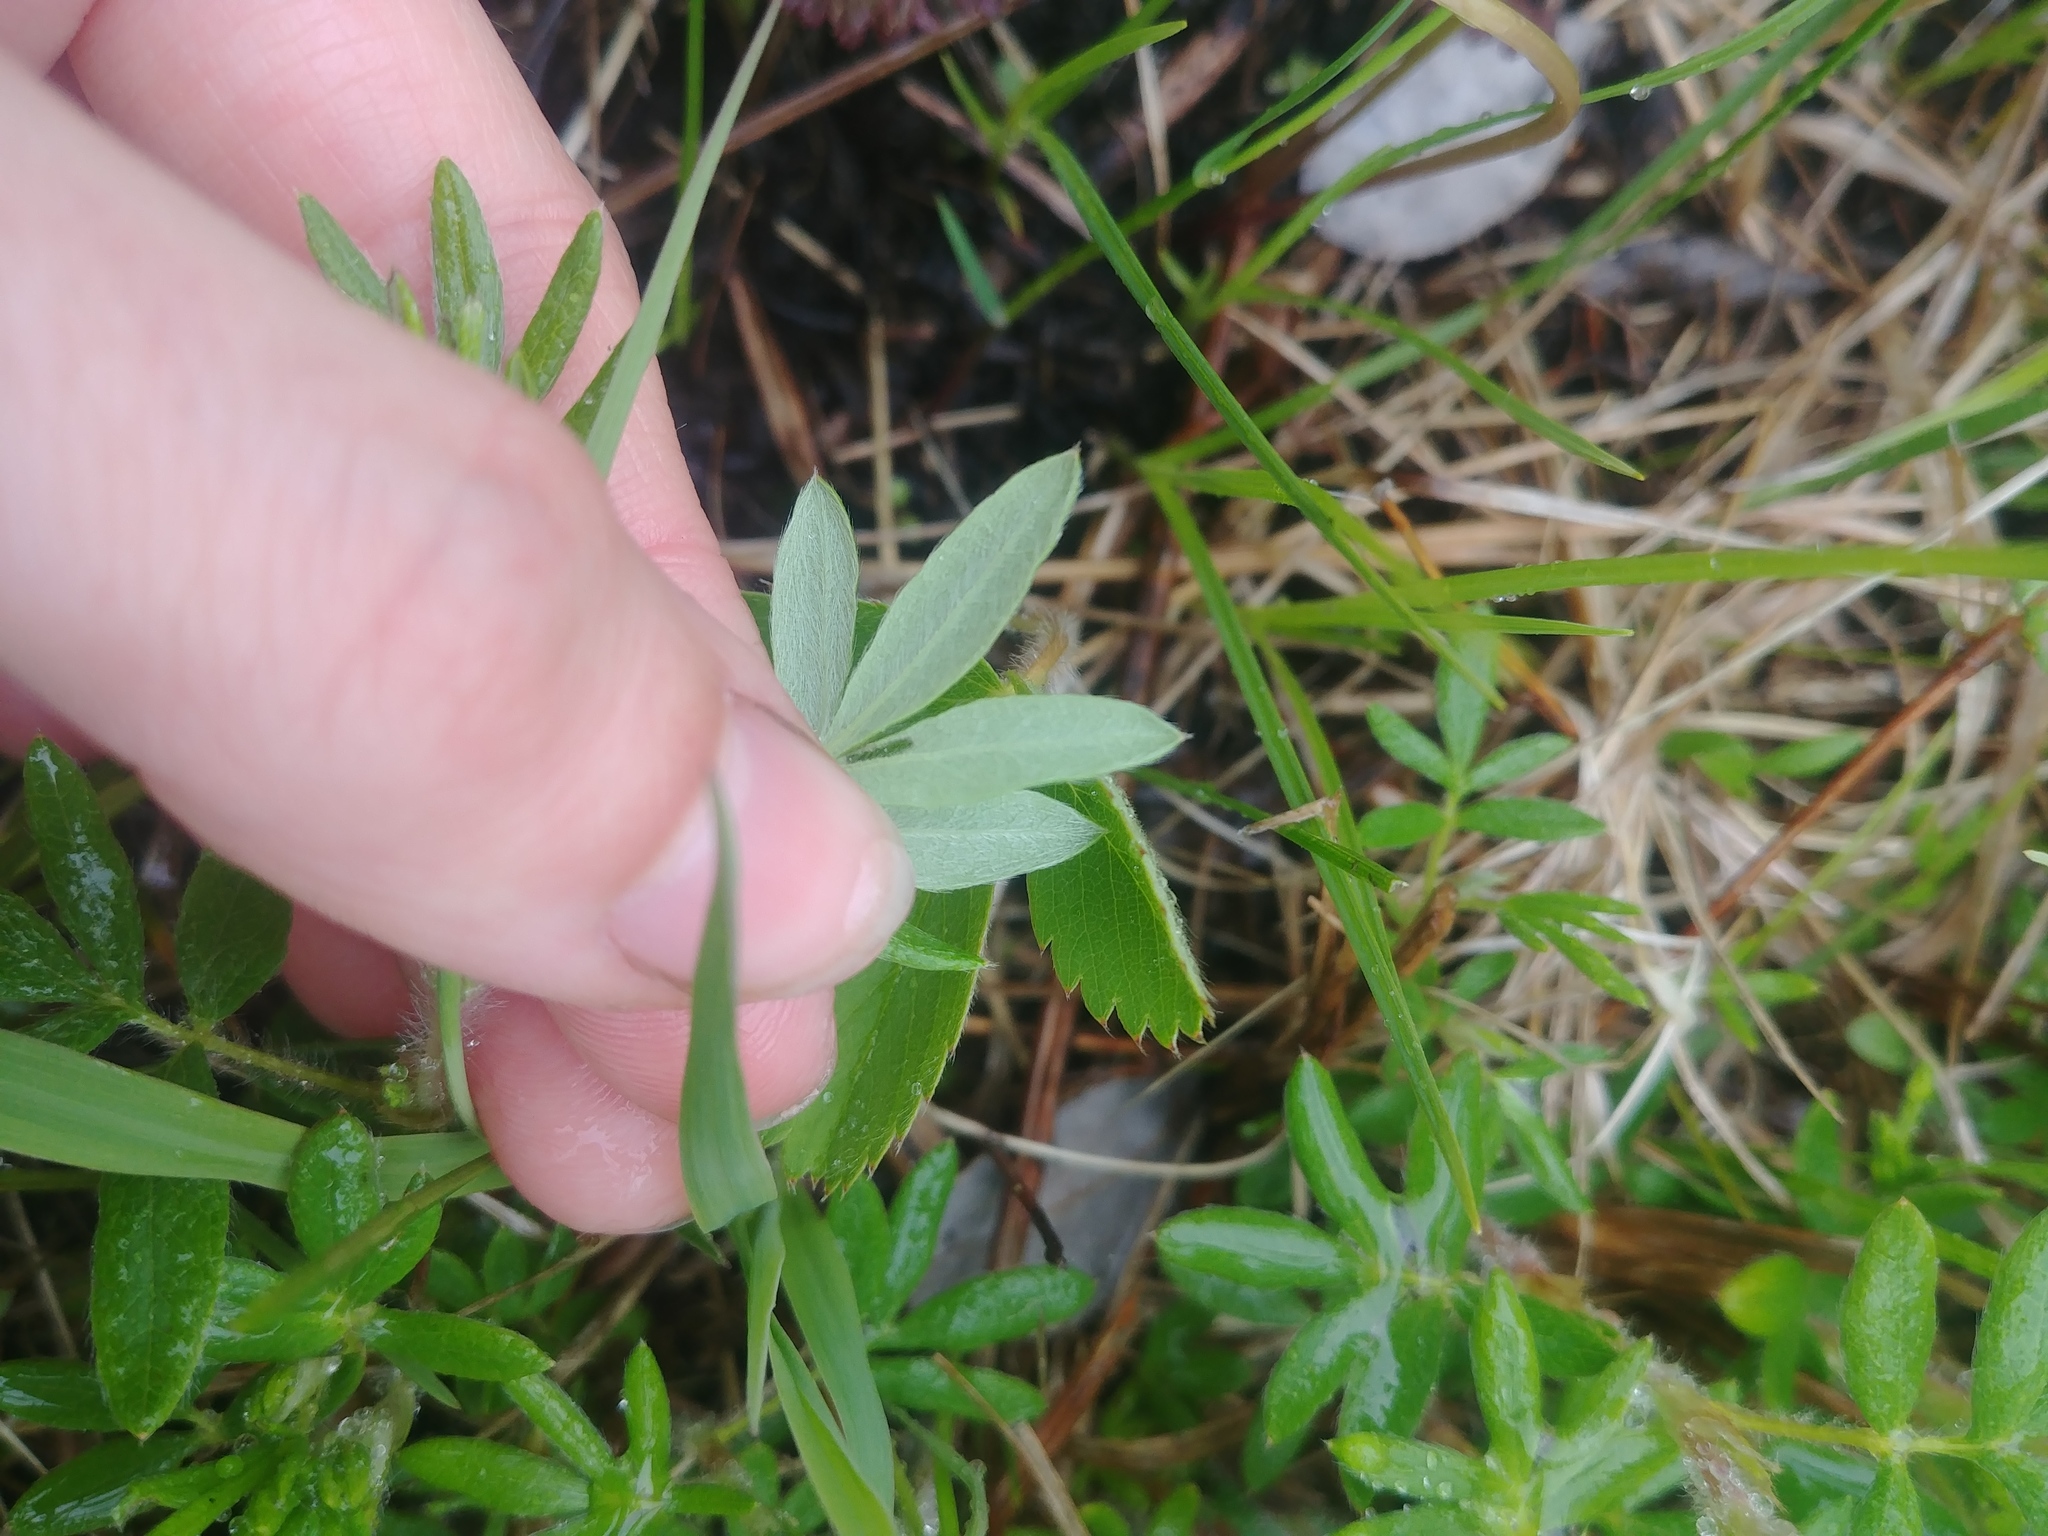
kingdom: Plantae
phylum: Tracheophyta
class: Magnoliopsida
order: Rosales
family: Rosaceae
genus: Dasiphora
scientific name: Dasiphora fruticosa
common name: Shrubby cinquefoil
